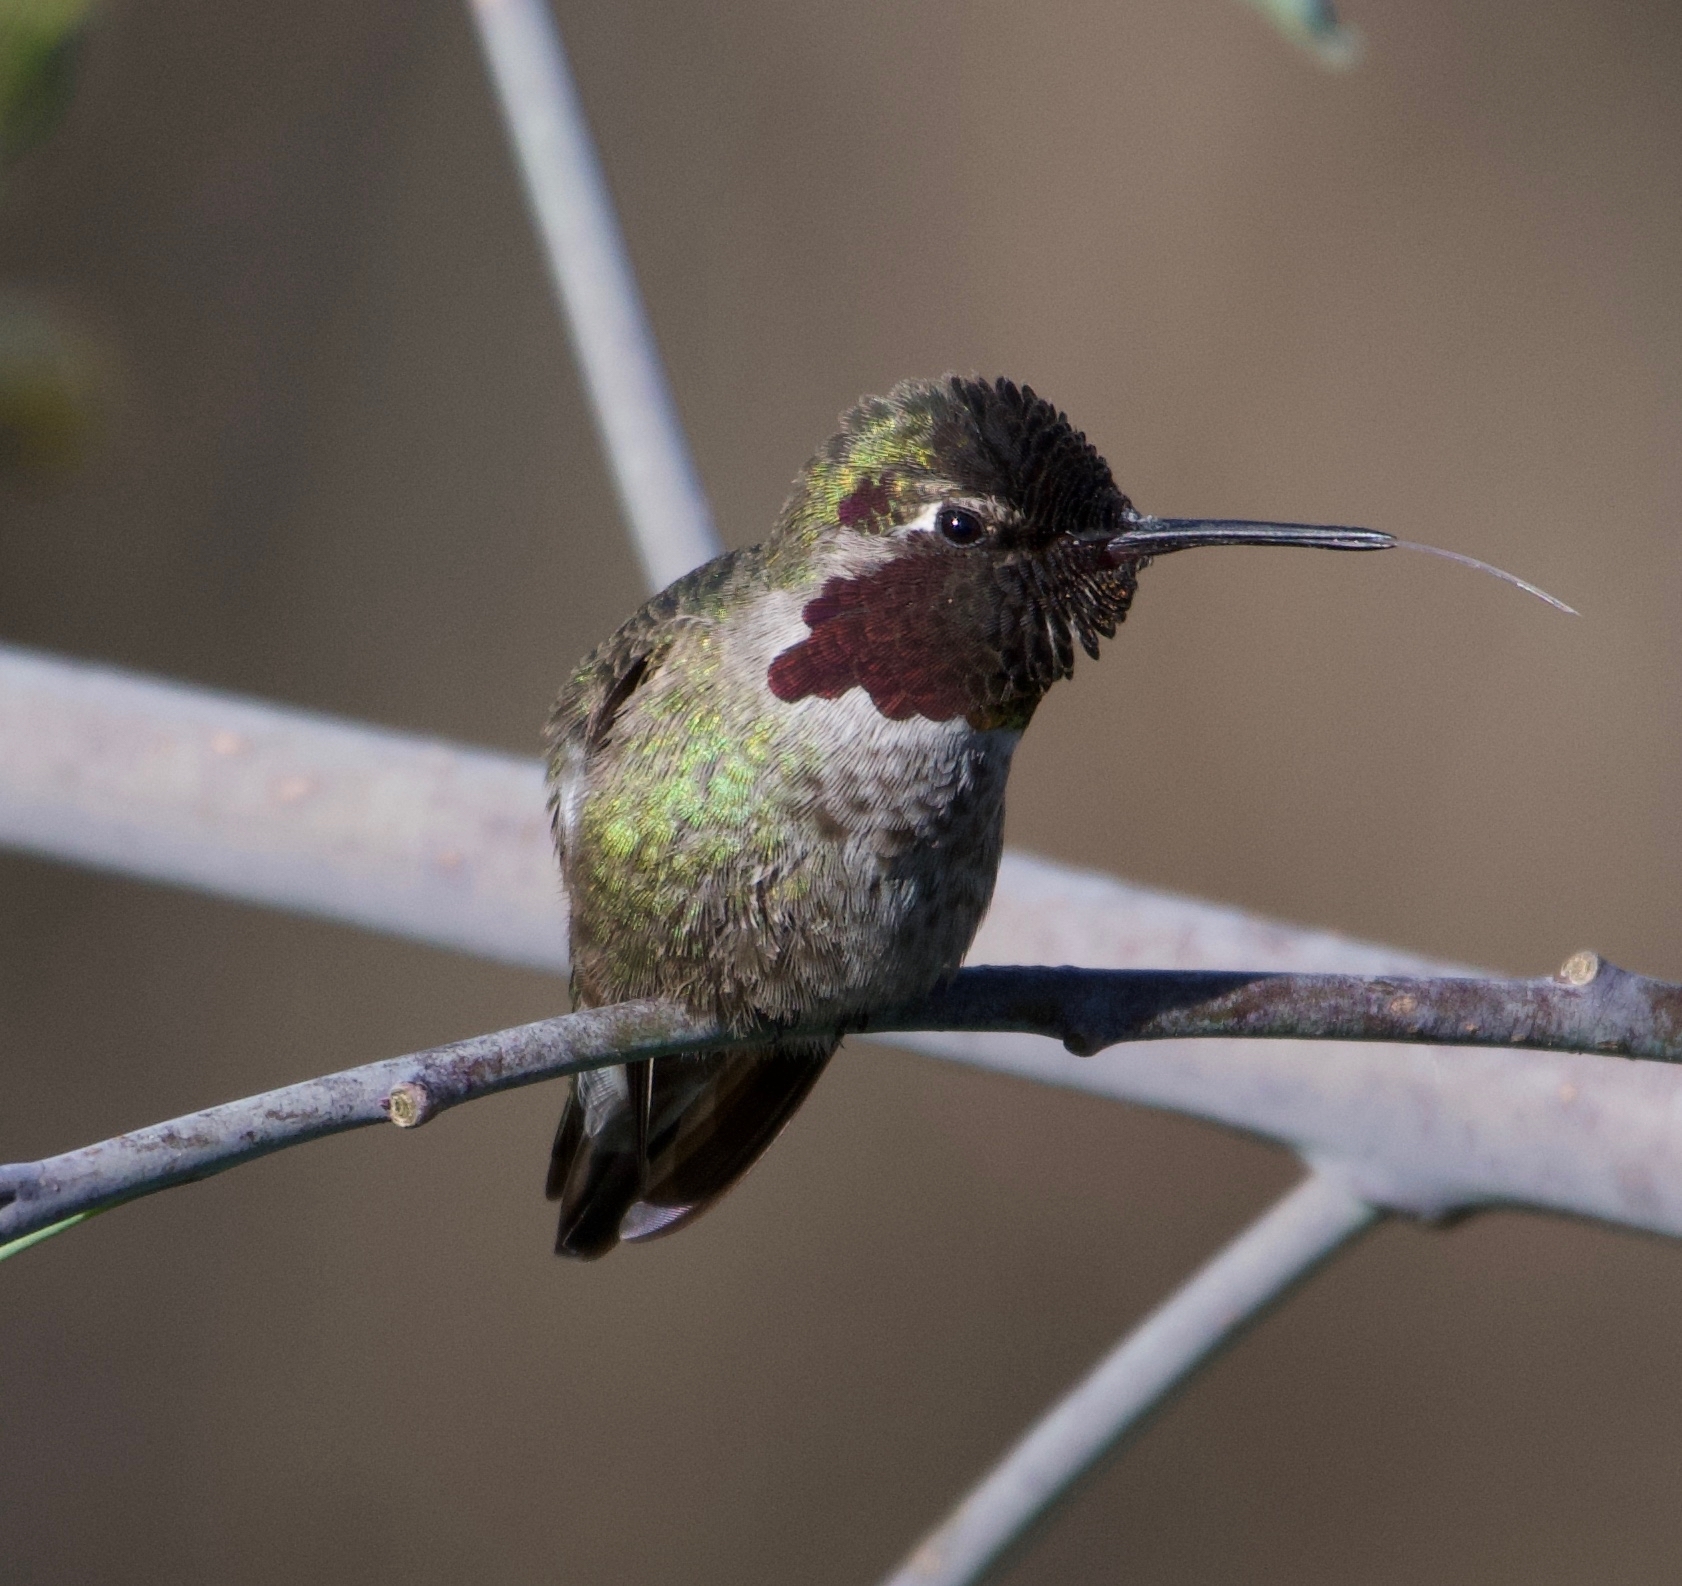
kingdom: Animalia
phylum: Chordata
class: Aves
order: Apodiformes
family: Trochilidae
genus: Calypte
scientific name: Calypte anna
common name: Anna's hummingbird
